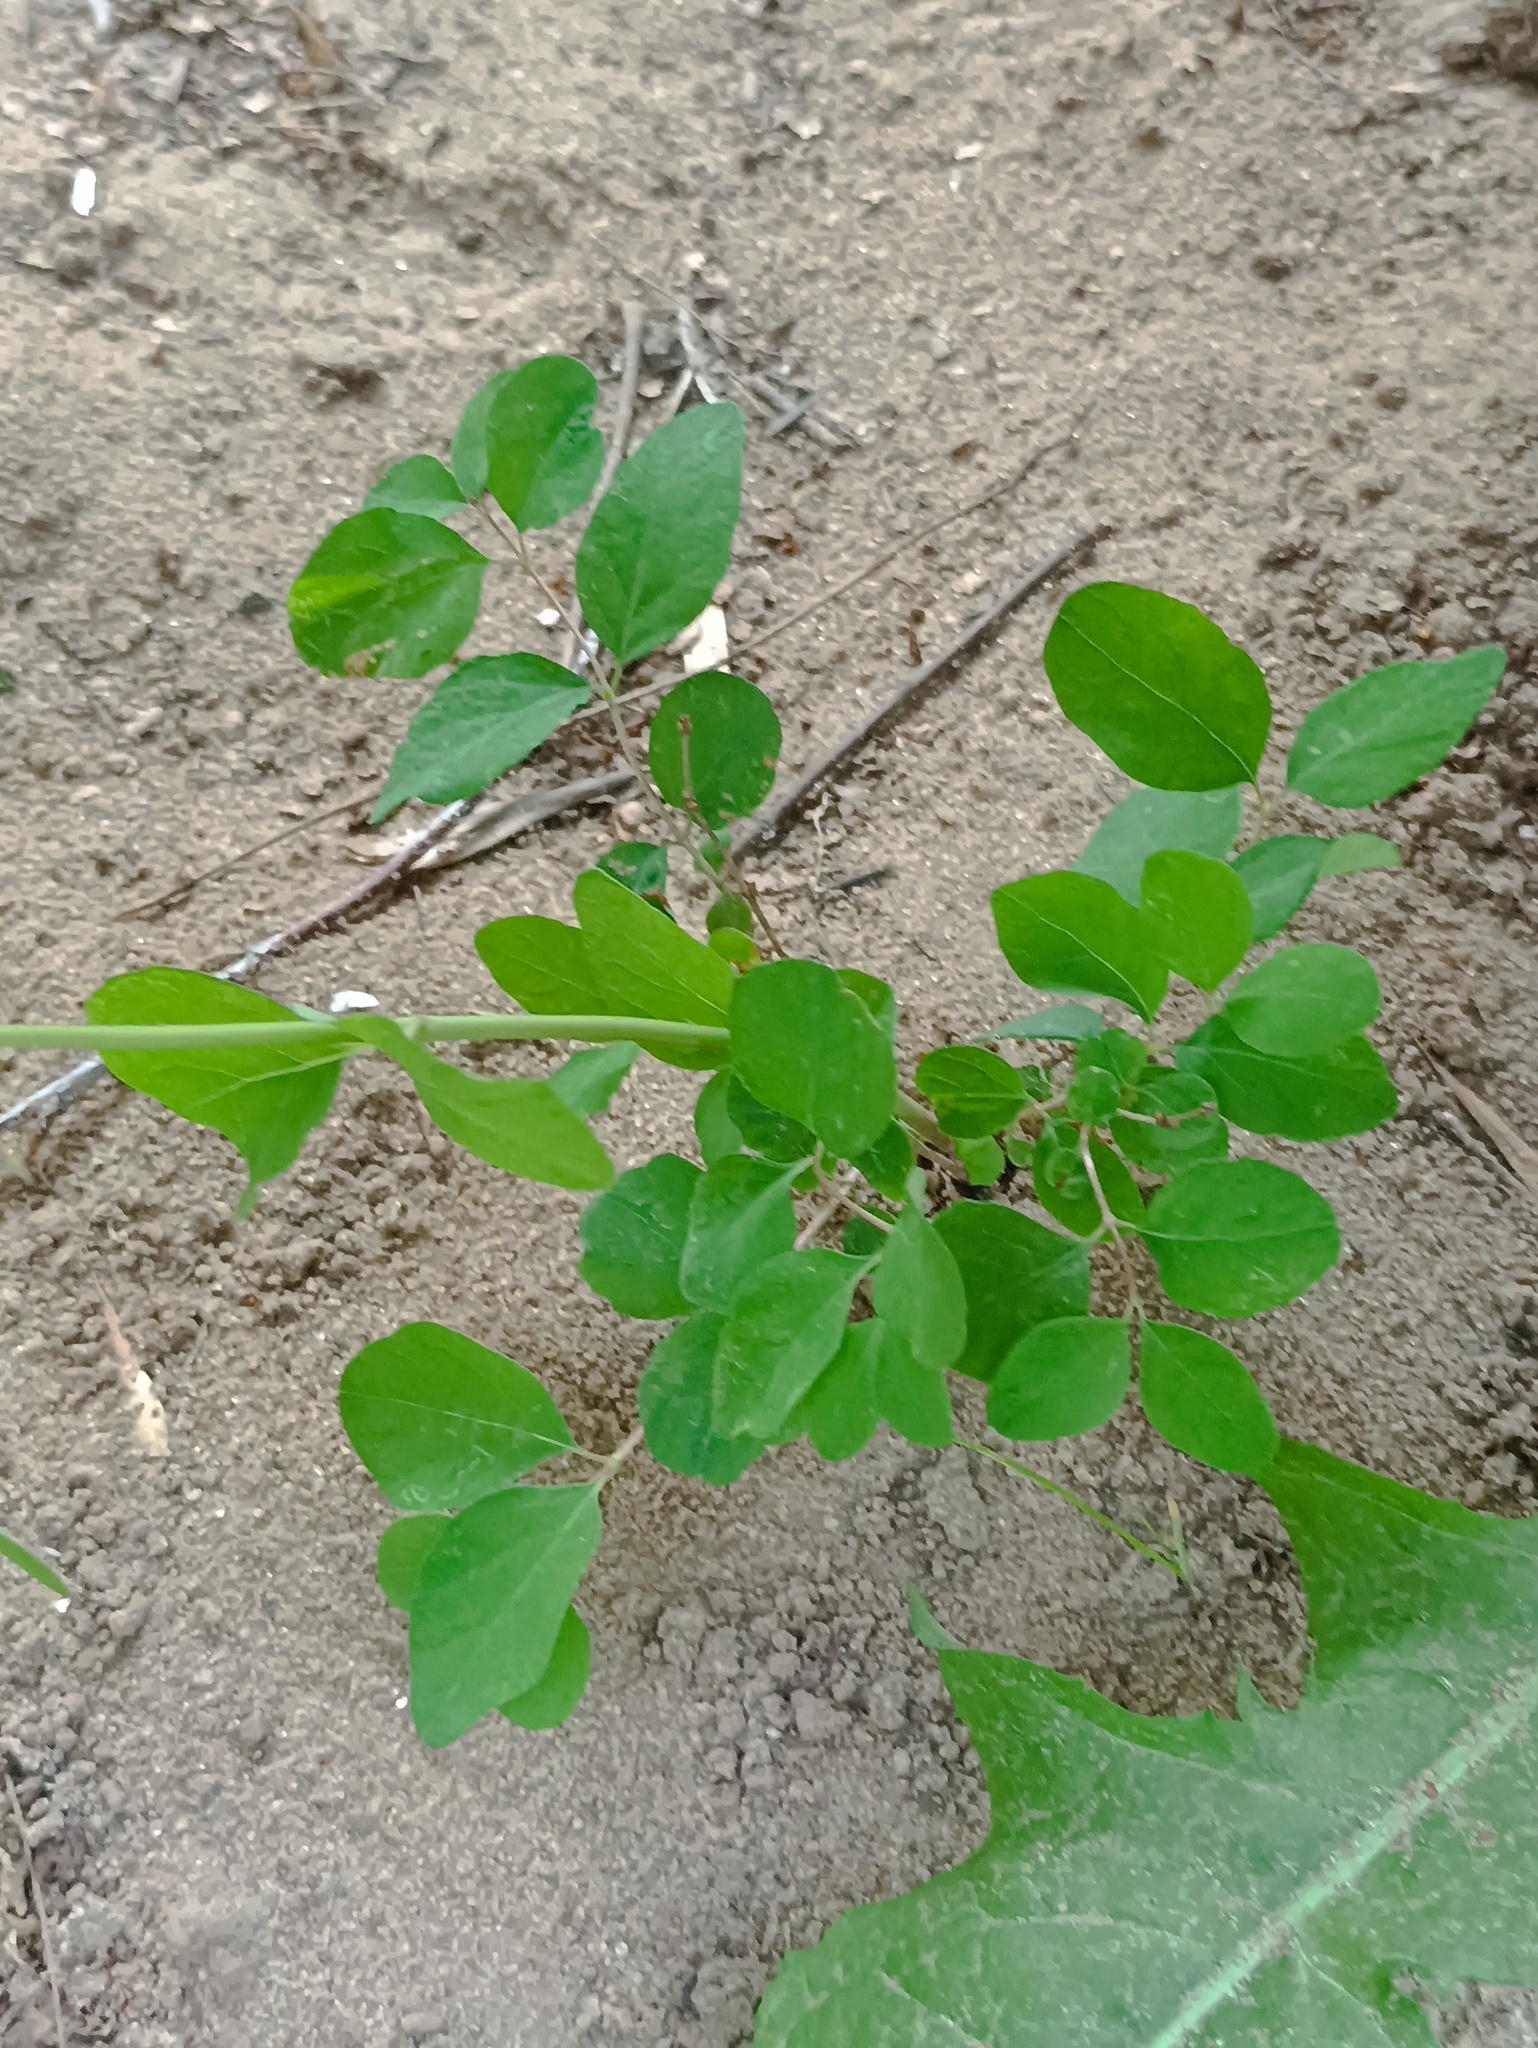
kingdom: Plantae
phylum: Tracheophyta
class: Magnoliopsida
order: Dipsacales
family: Caprifoliaceae
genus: Symphoricarpos
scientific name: Symphoricarpos albus
